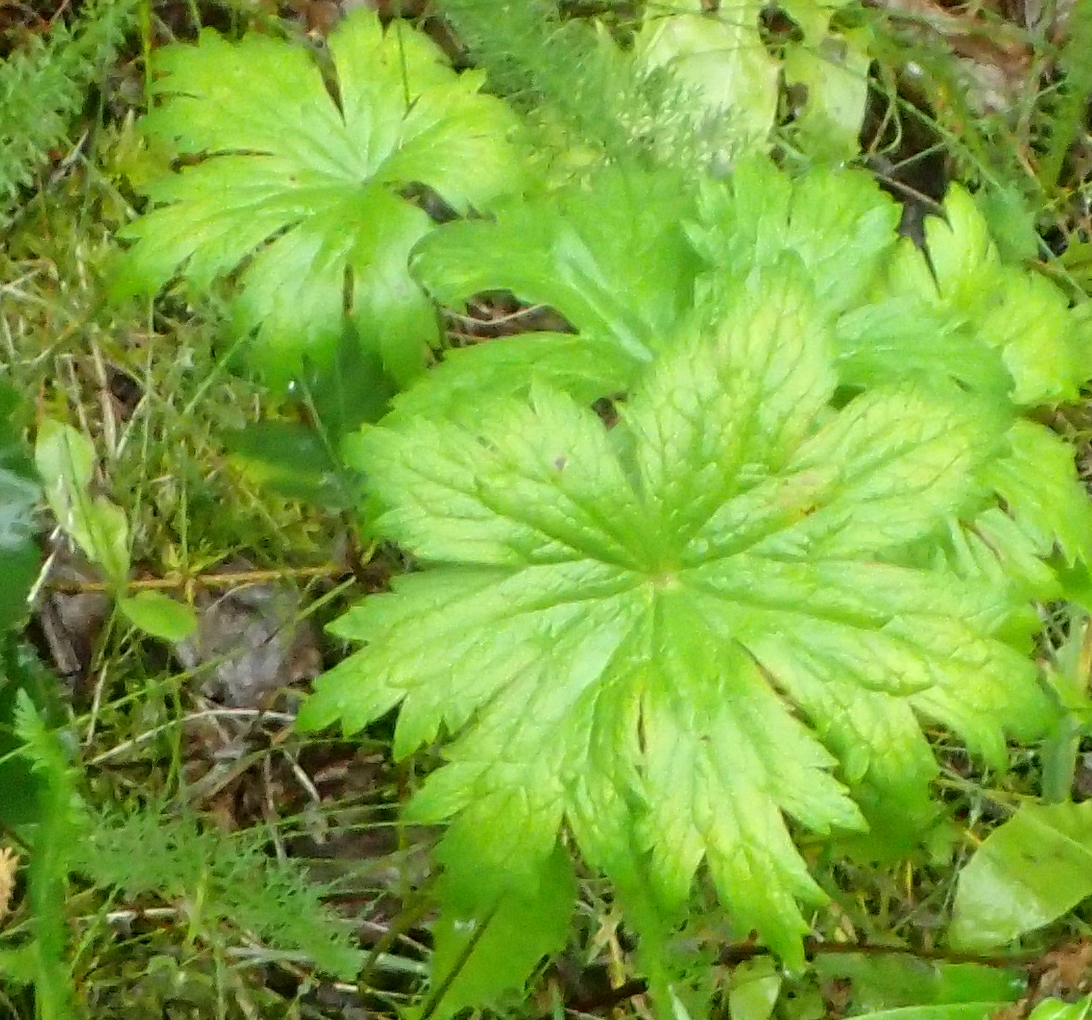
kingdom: Plantae
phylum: Tracheophyta
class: Magnoliopsida
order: Geraniales
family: Geraniaceae
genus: Geranium
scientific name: Geranium erianthum
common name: Northern crane's-bill
